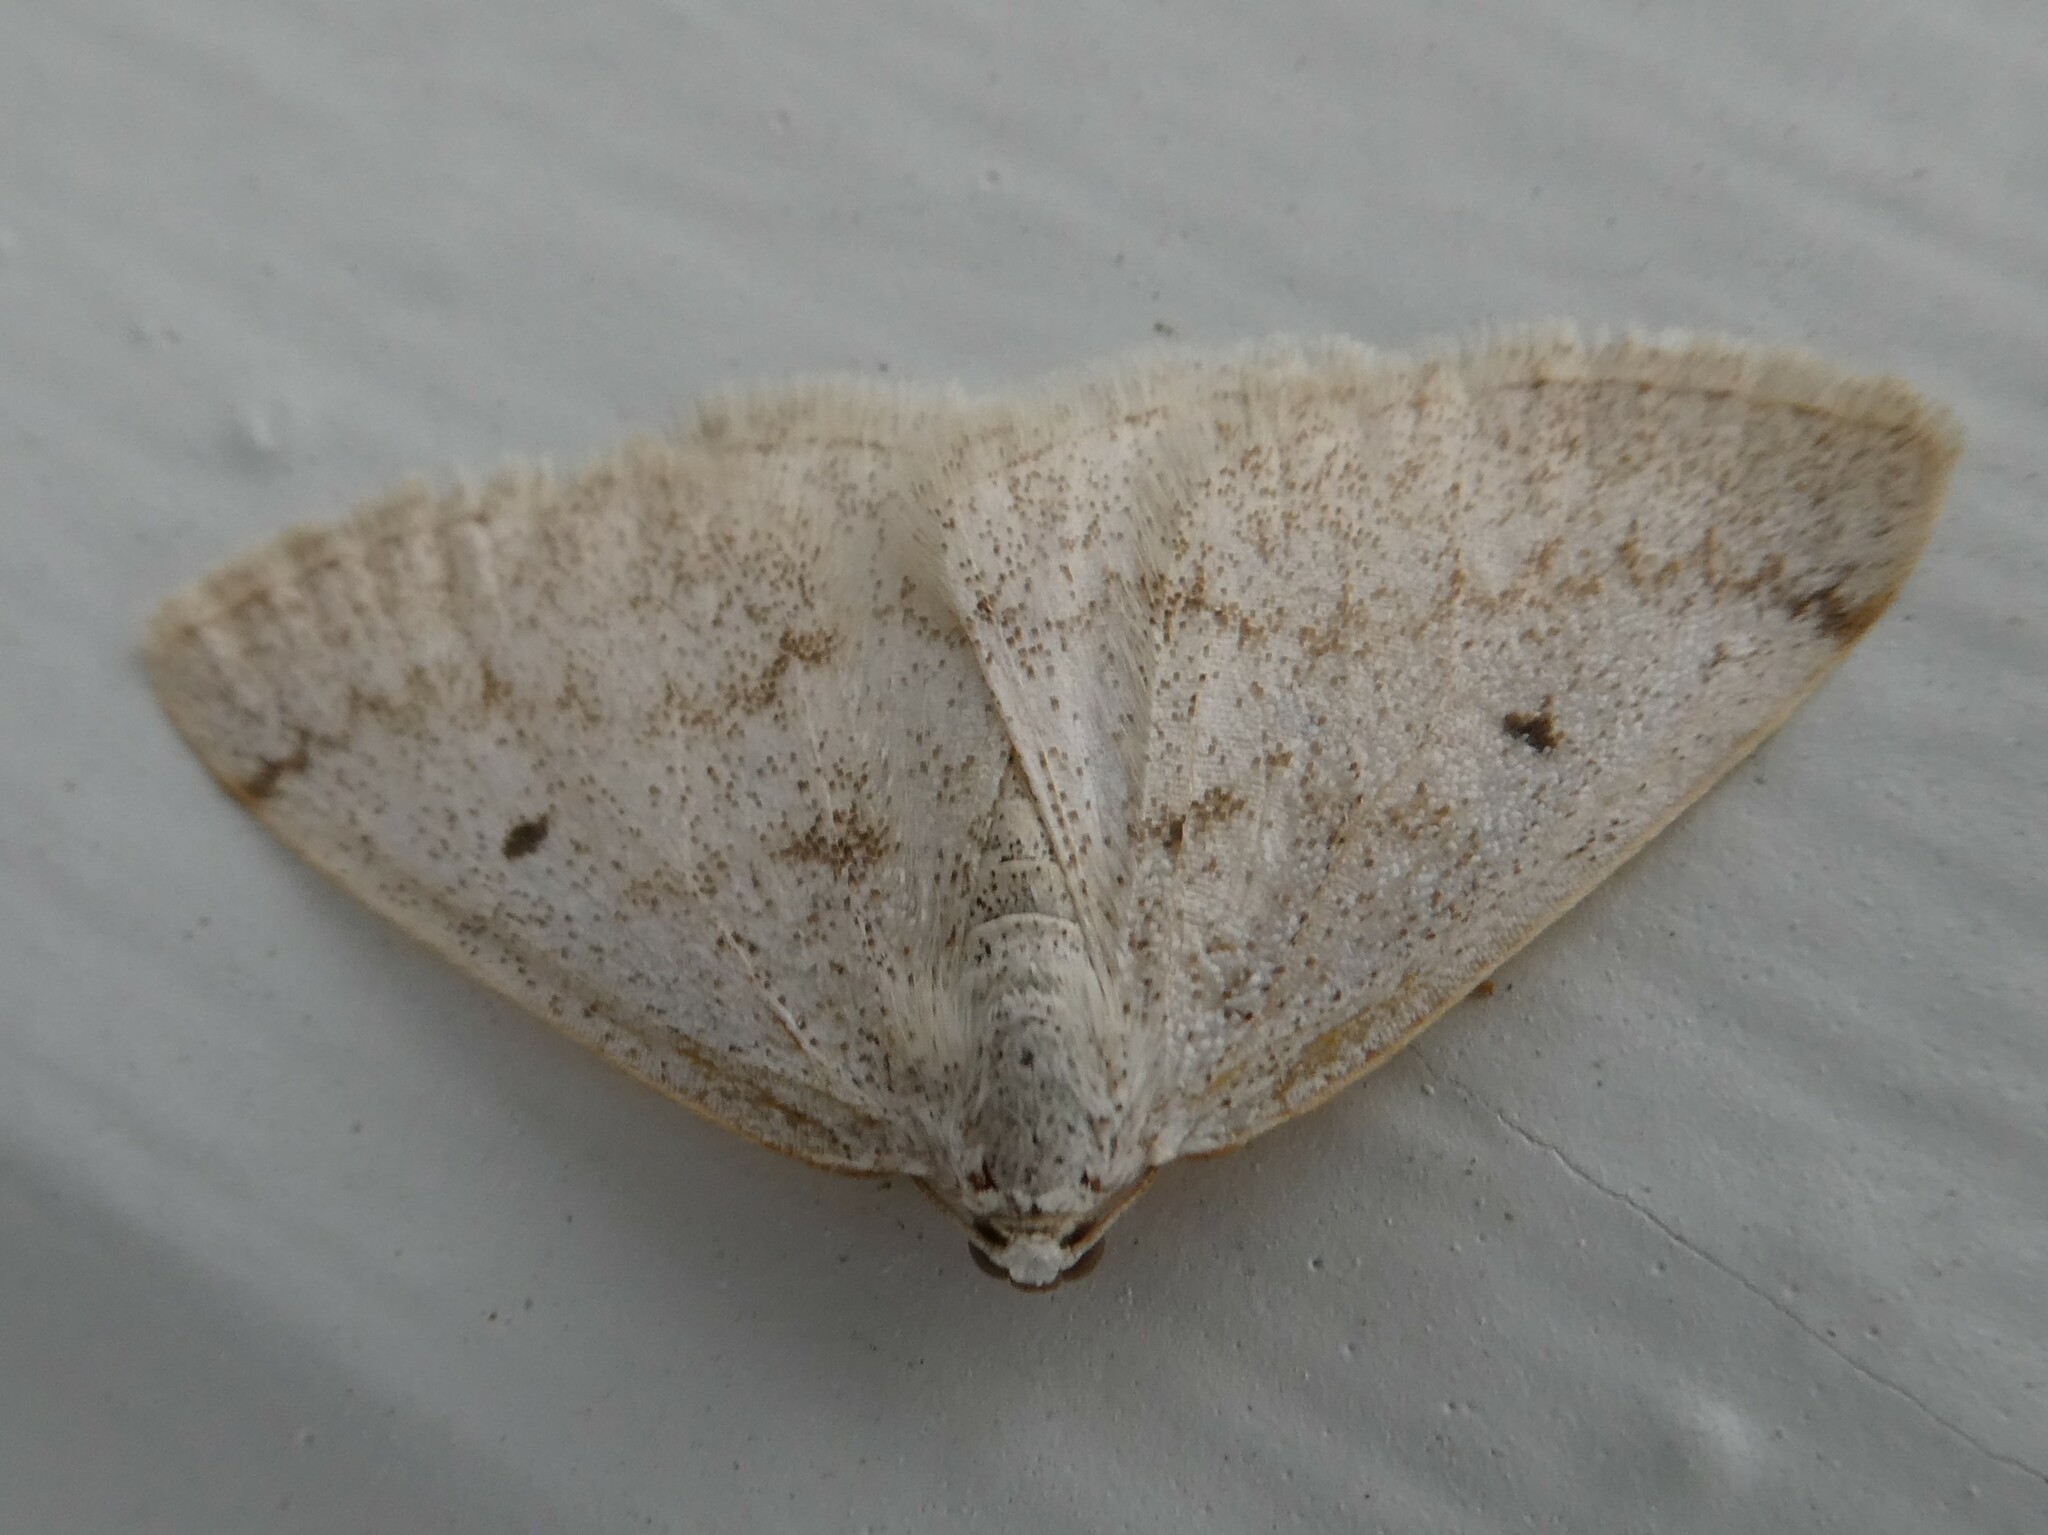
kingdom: Animalia
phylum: Arthropoda
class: Insecta
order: Lepidoptera
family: Geometridae
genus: Lomographa
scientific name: Lomographa glomeraria
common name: Gray spring moth
